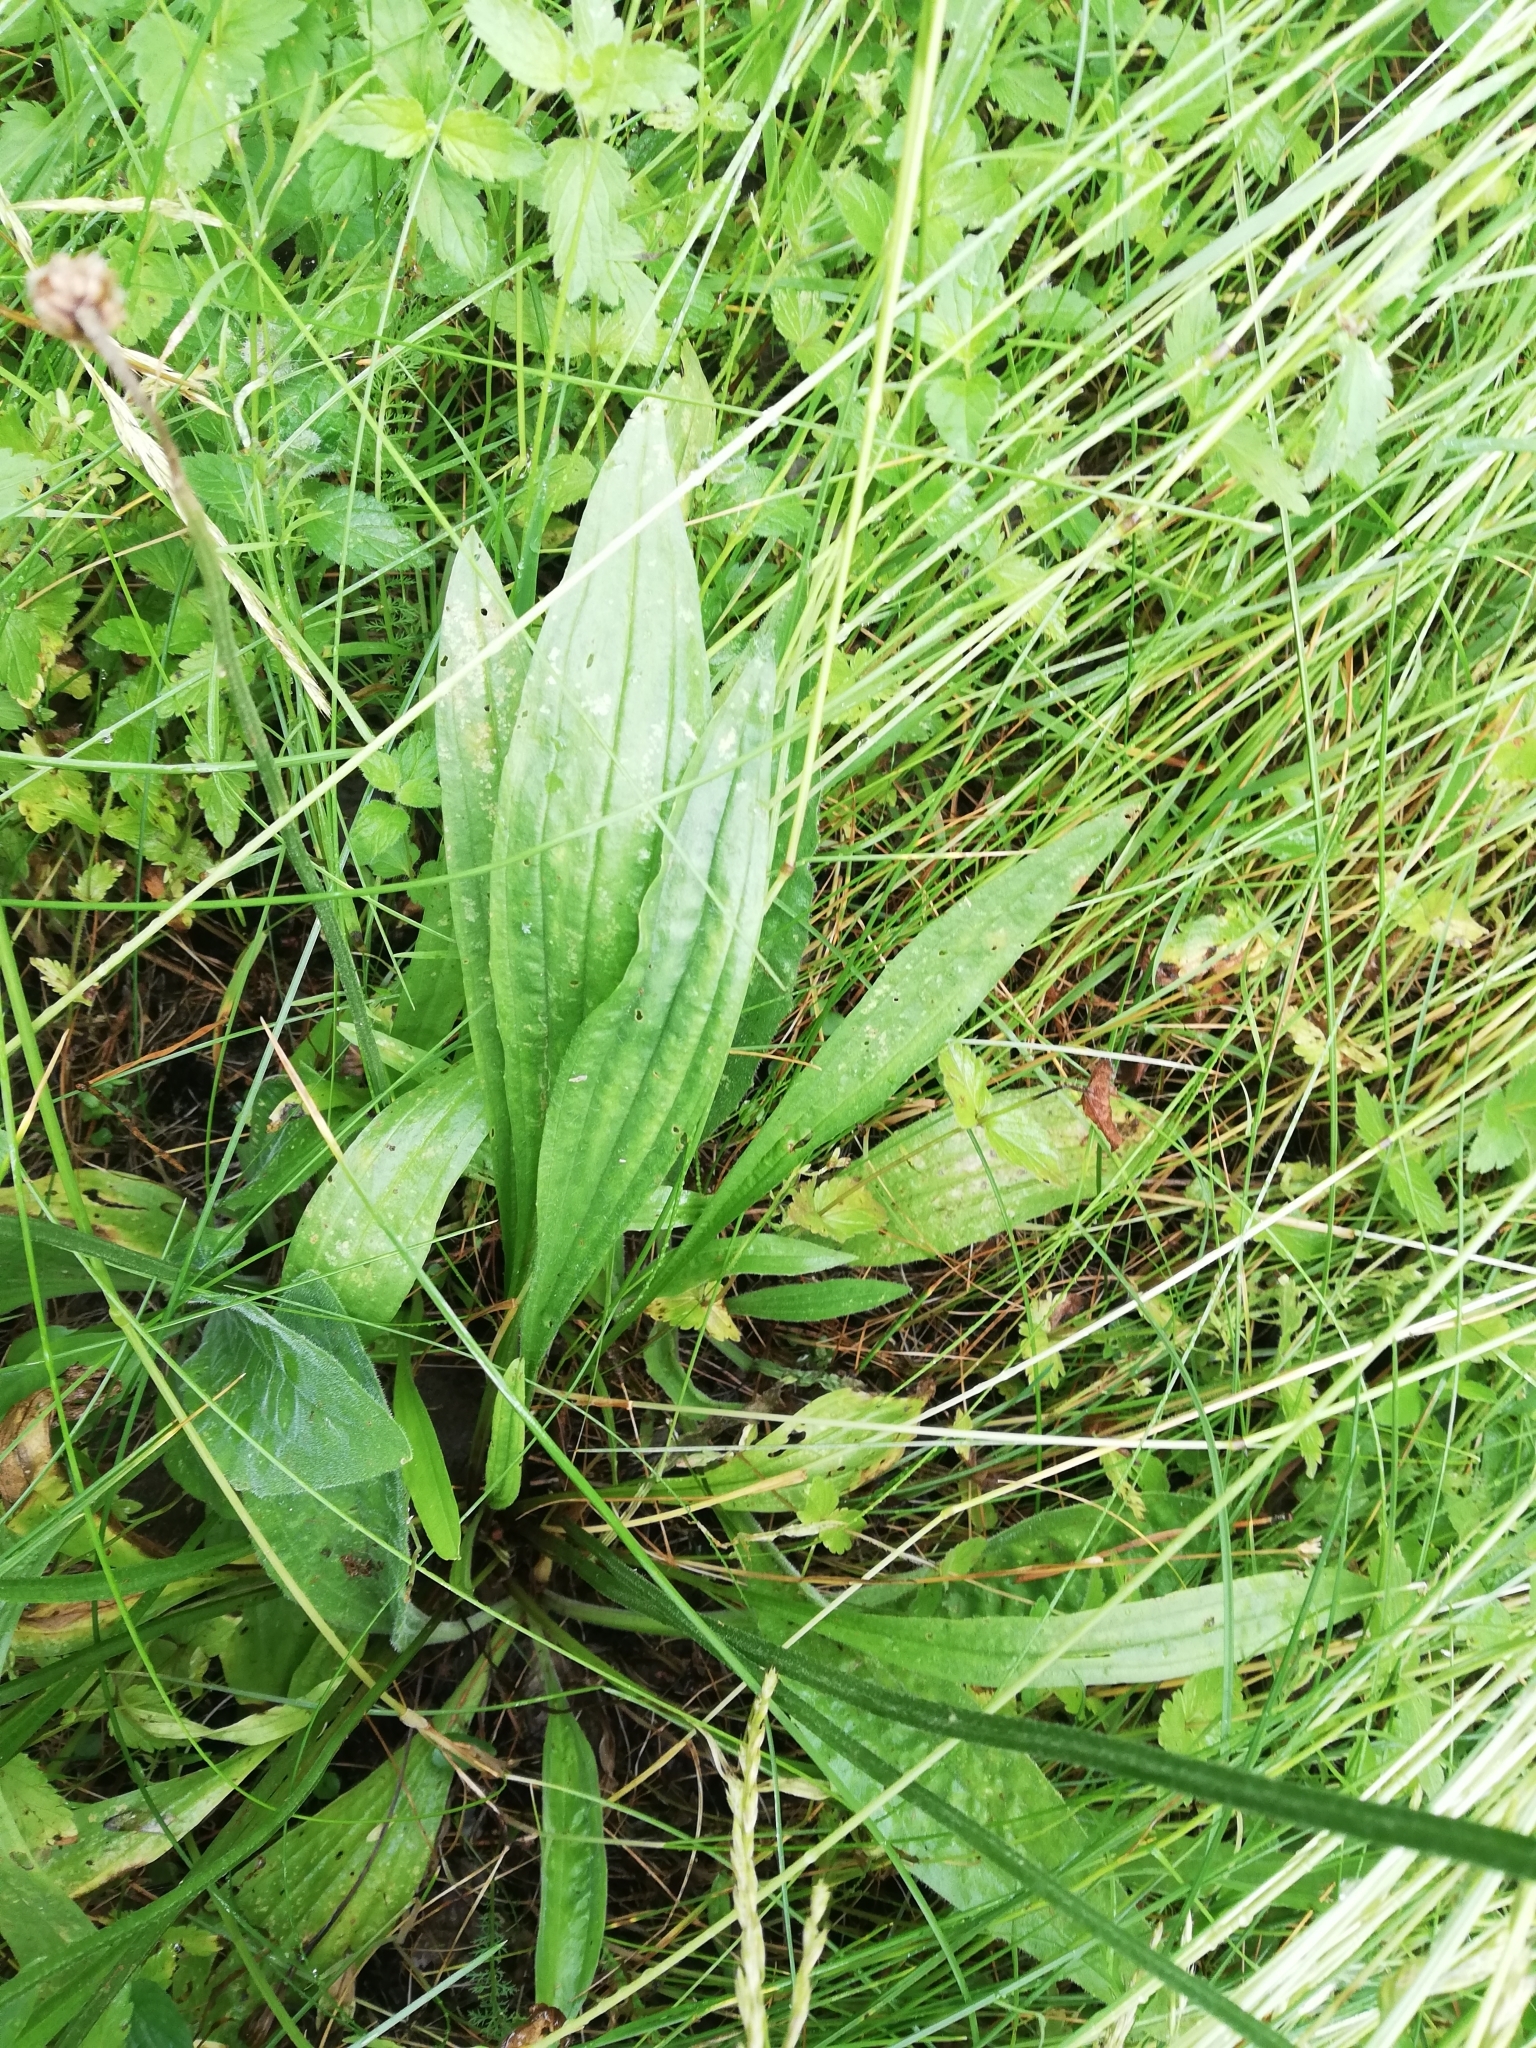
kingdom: Plantae
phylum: Tracheophyta
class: Magnoliopsida
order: Lamiales
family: Plantaginaceae
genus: Plantago
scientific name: Plantago lanceolata
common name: Ribwort plantain
